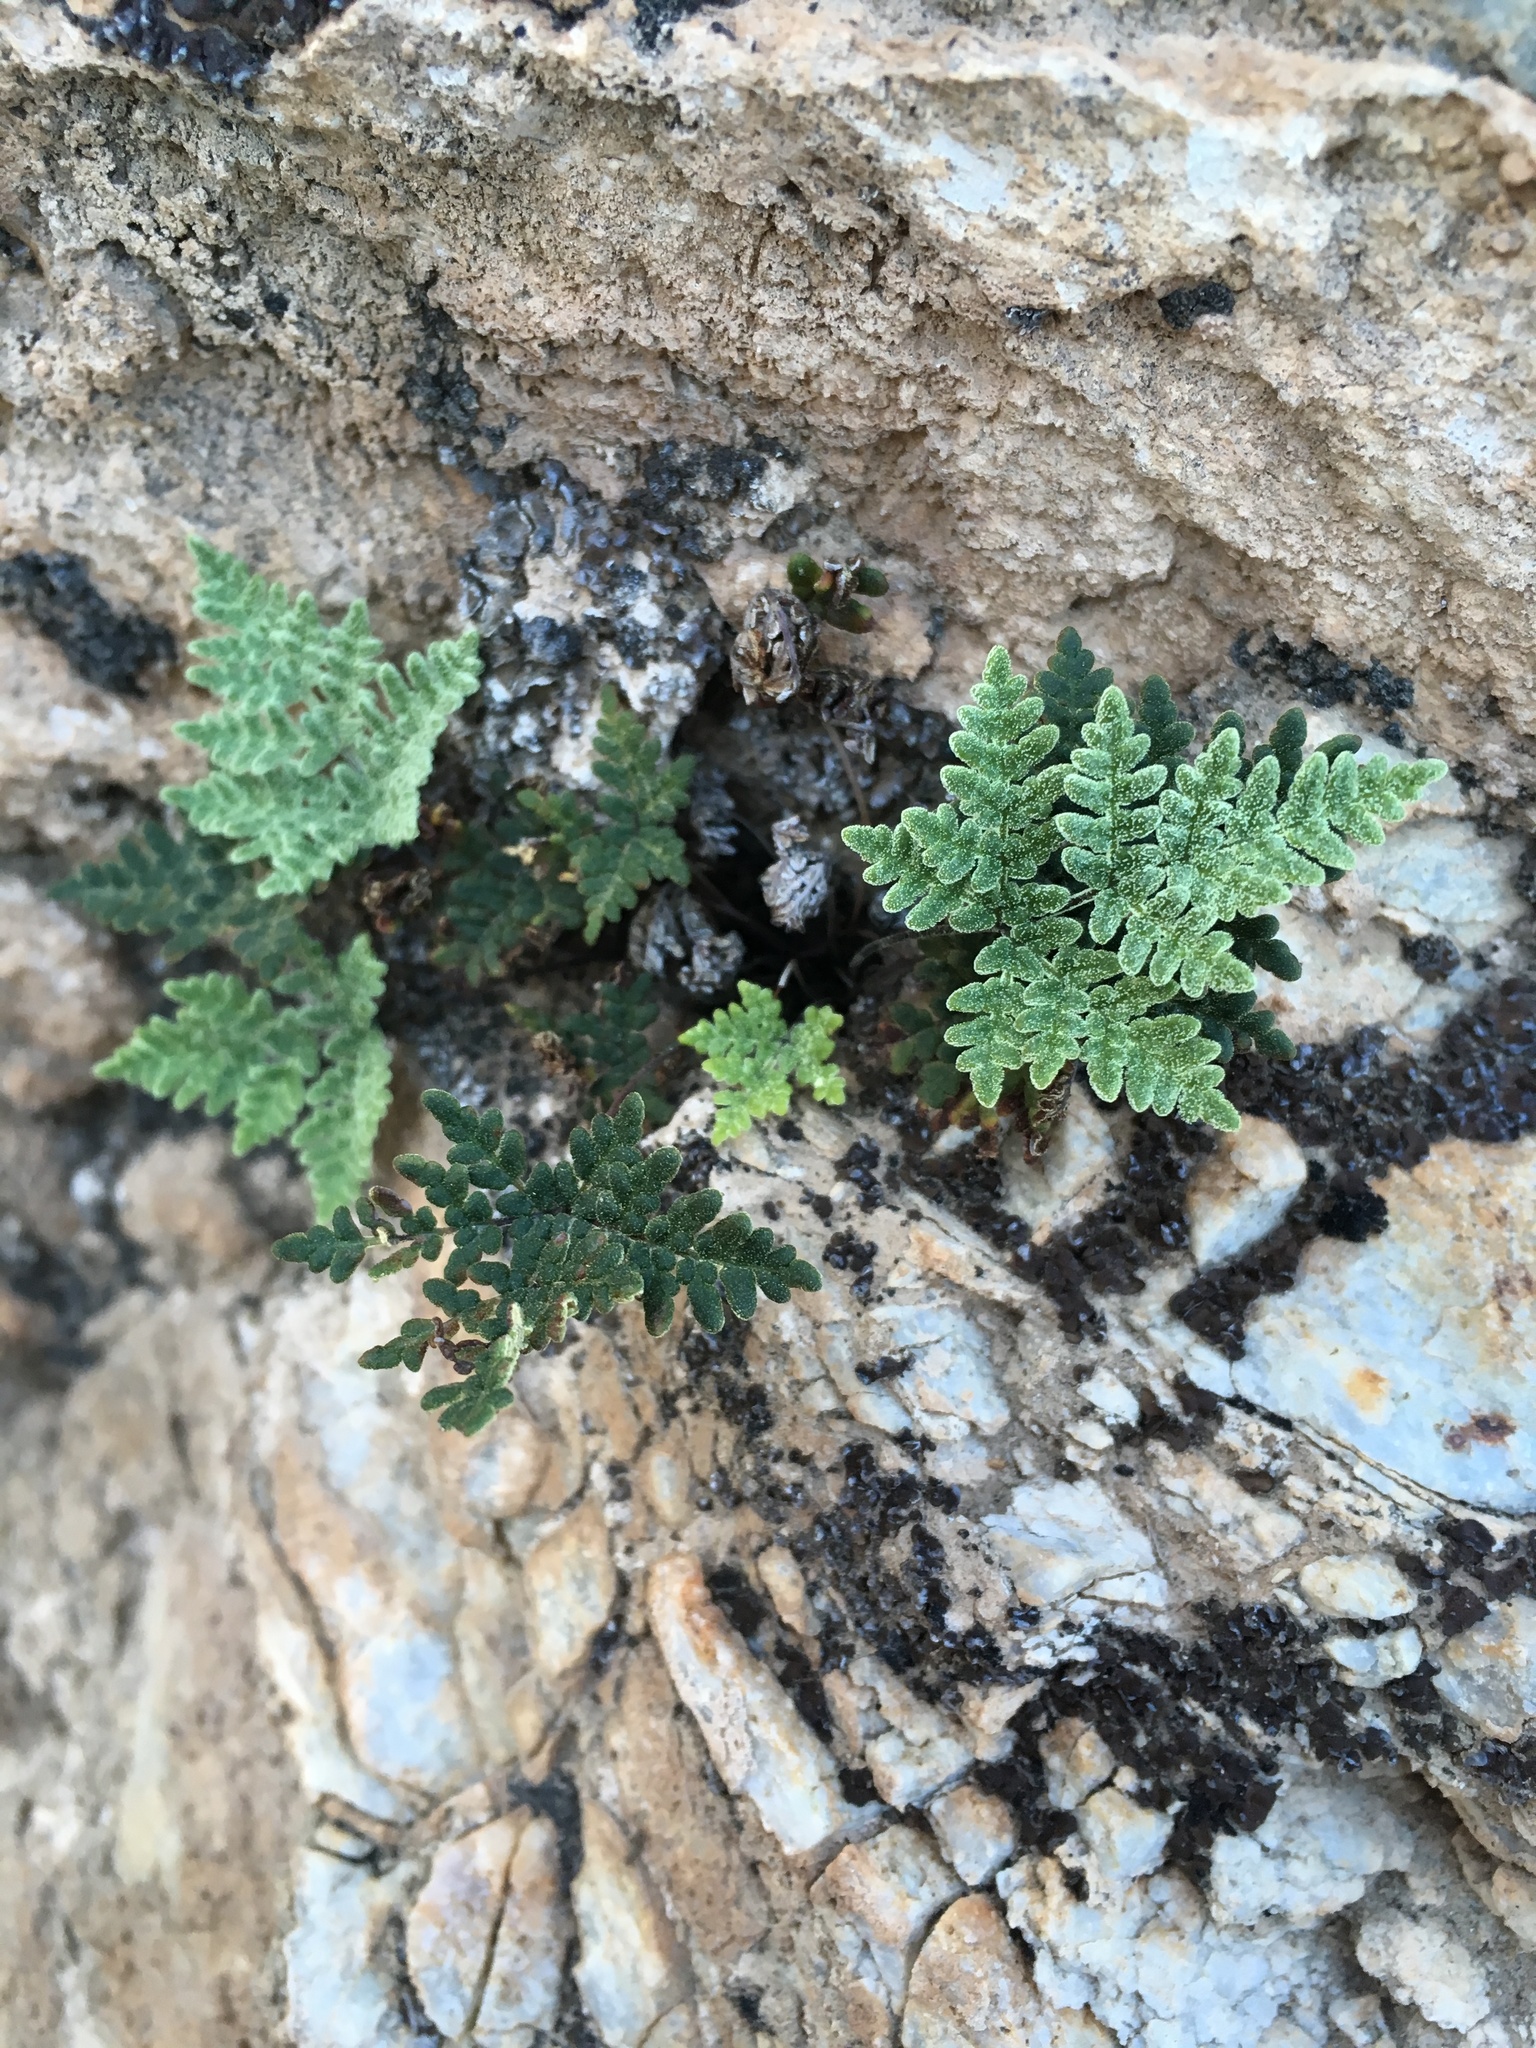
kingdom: Plantae
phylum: Tracheophyta
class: Polypodiopsida
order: Polypodiales
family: Pteridaceae
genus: Notholaena
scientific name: Notholaena californica
